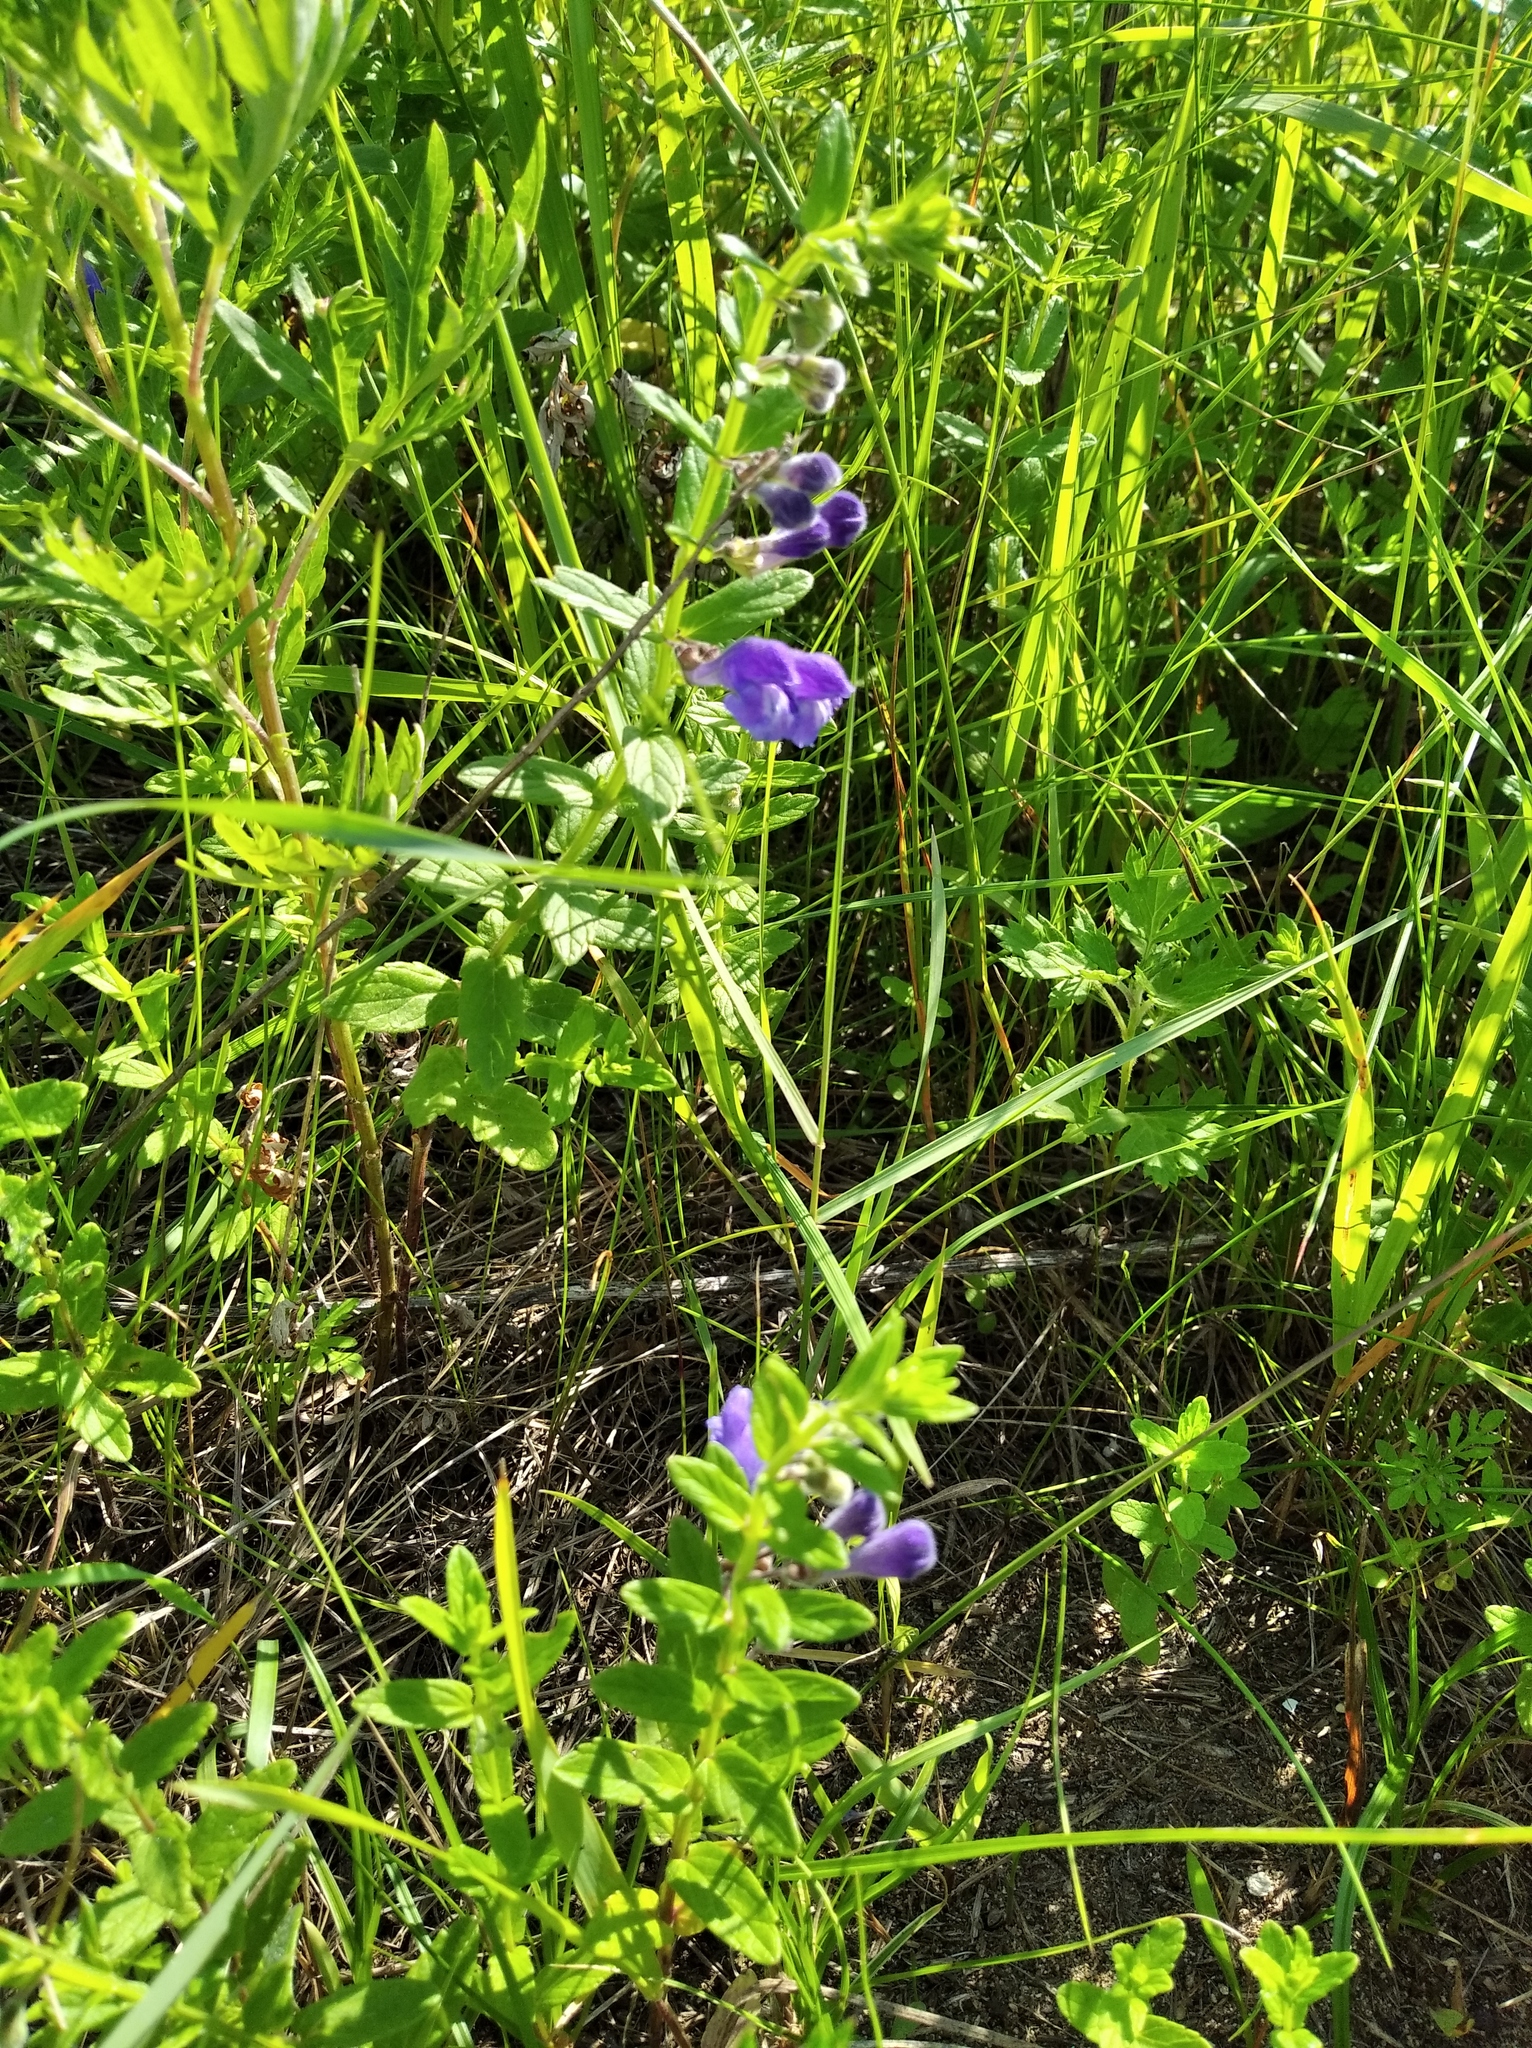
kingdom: Plantae
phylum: Tracheophyta
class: Magnoliopsida
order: Lamiales
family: Lamiaceae
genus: Scutellaria
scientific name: Scutellaria strigillosa
